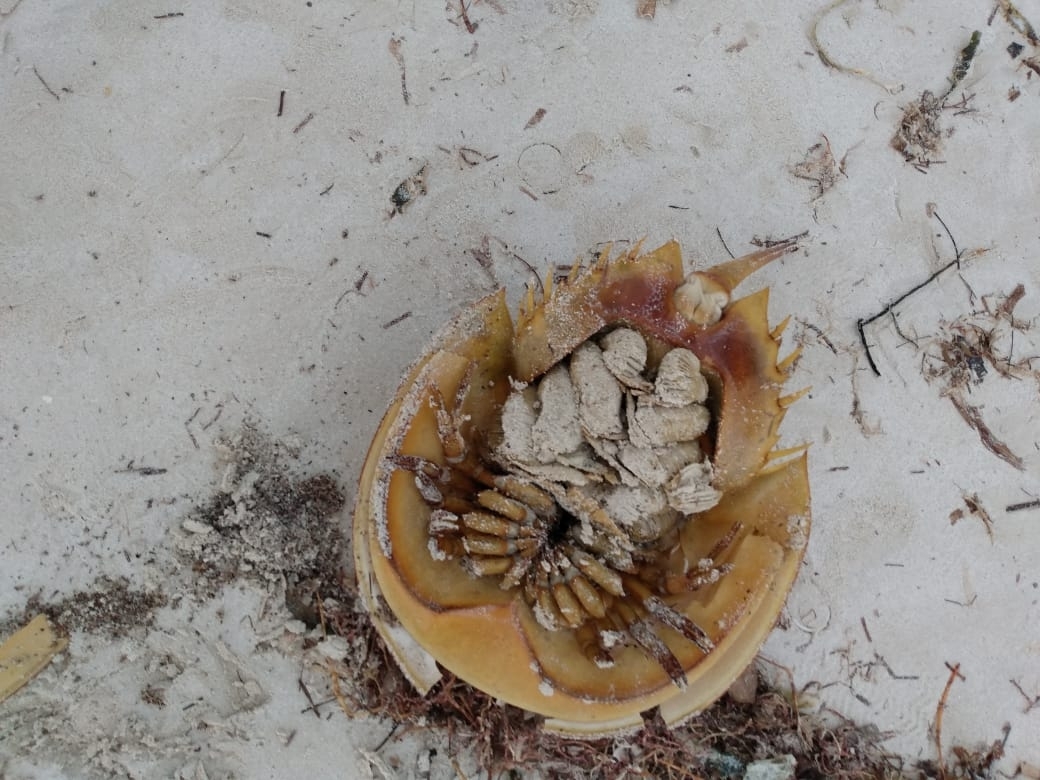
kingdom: Animalia
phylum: Arthropoda
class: Merostomata
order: Xiphosurida
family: Limulidae
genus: Limulus
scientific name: Limulus polyphemus
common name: Horseshoe crab
